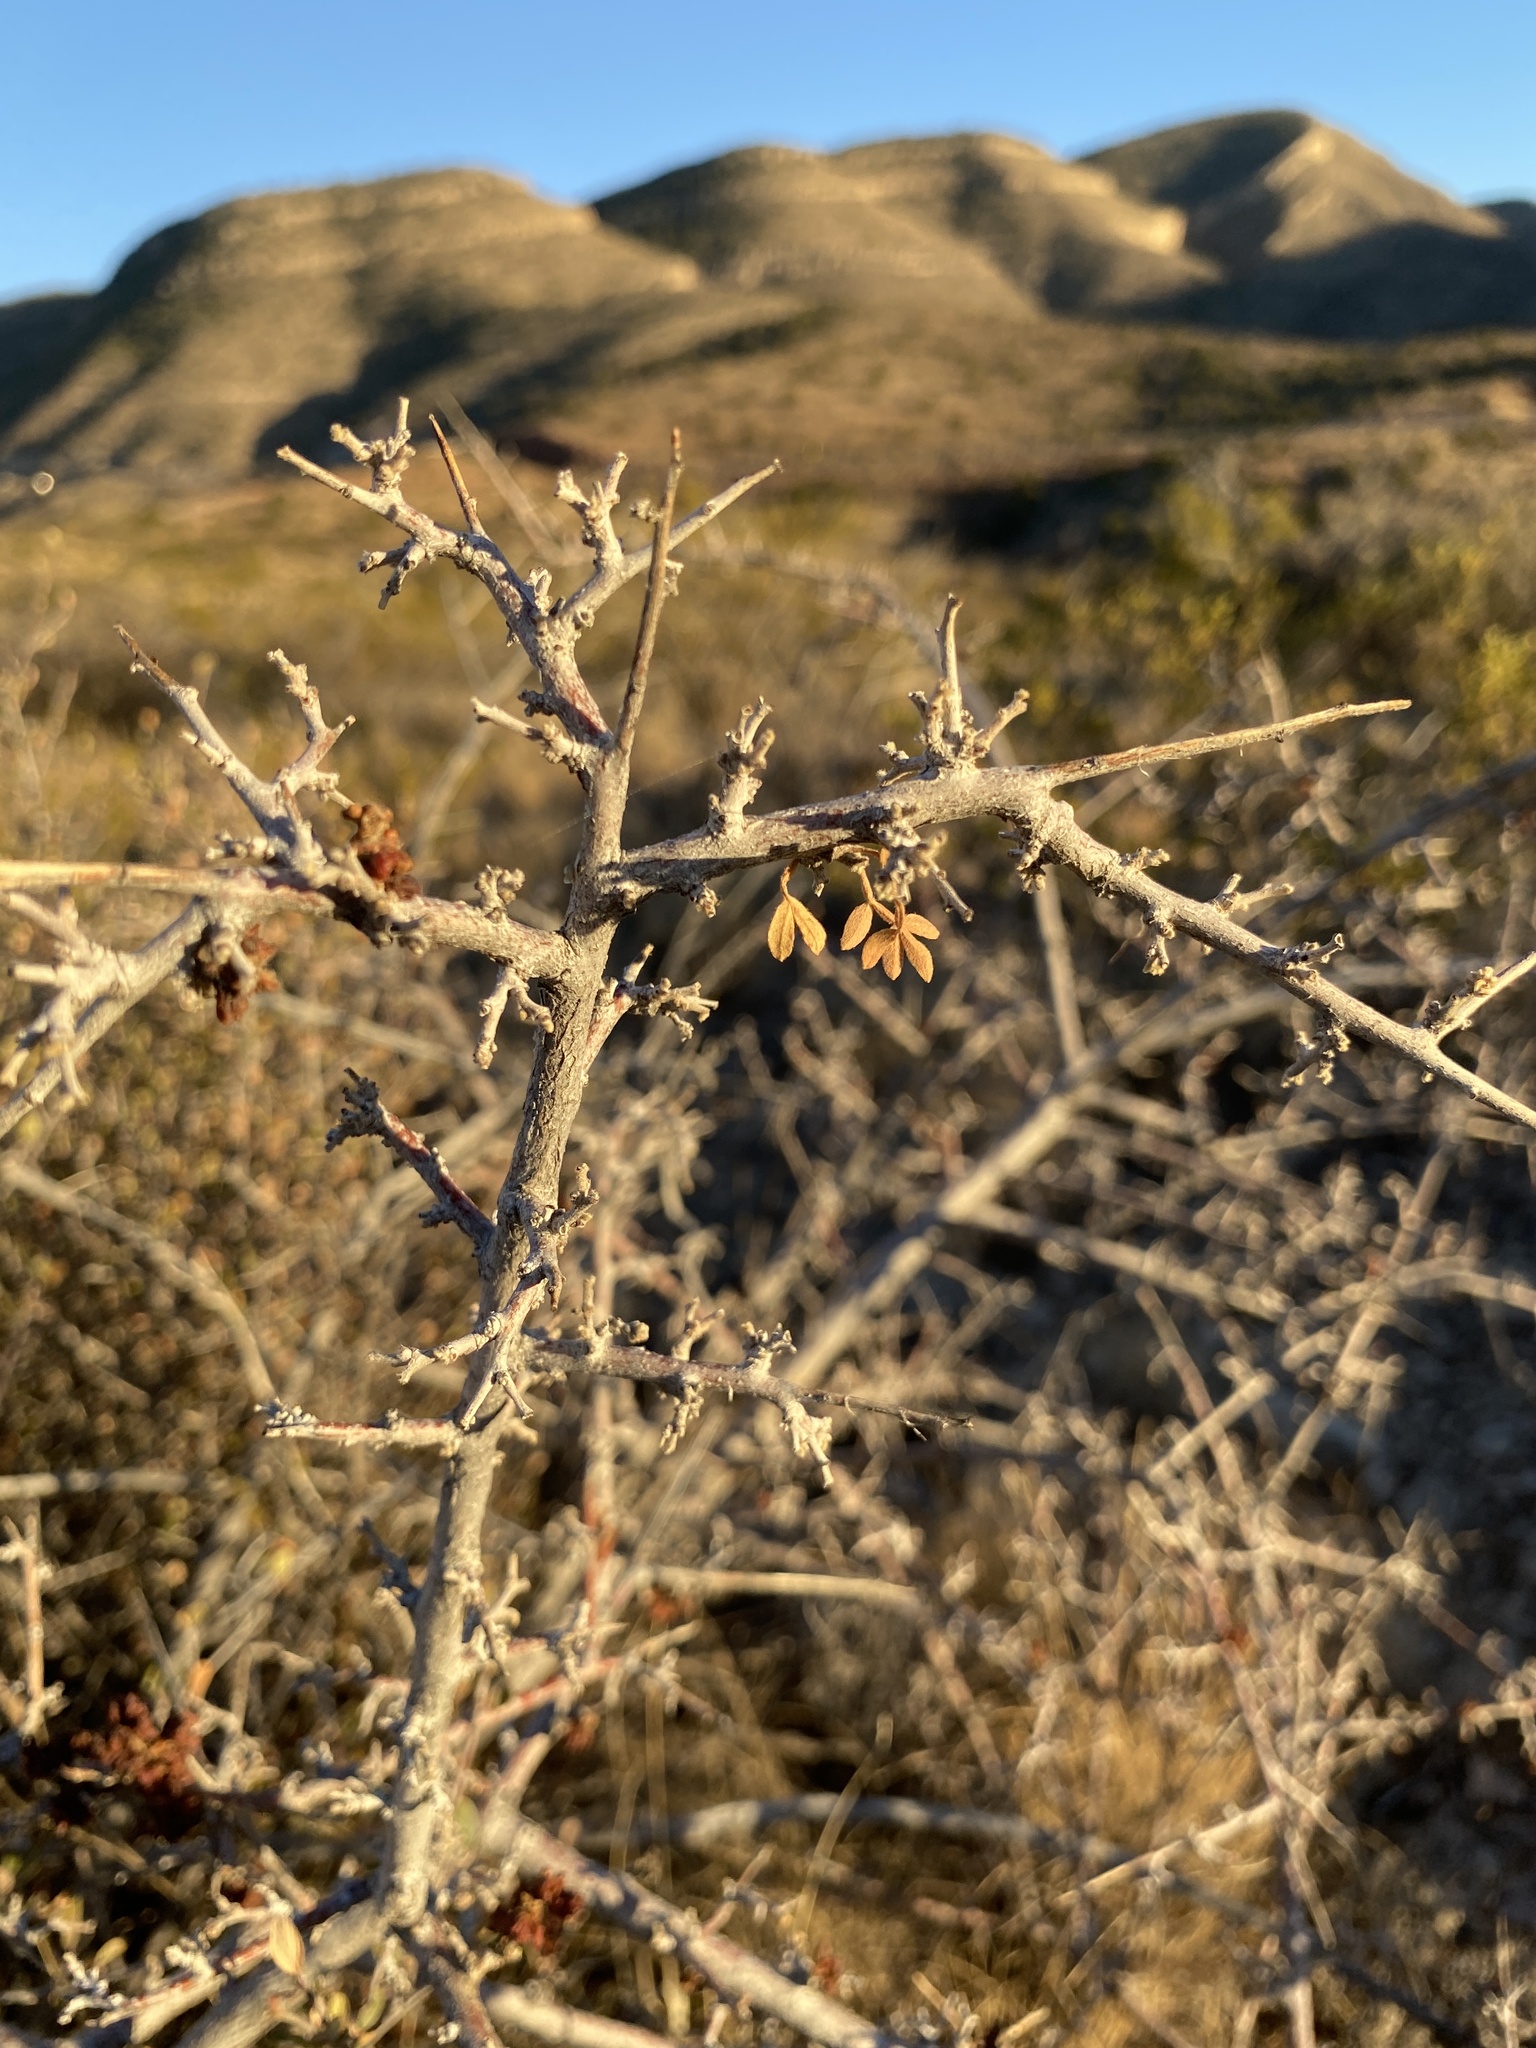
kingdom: Plantae
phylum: Tracheophyta
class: Magnoliopsida
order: Sapindales
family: Anacardiaceae
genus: Rhus
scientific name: Rhus microphylla
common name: Desert sumac
